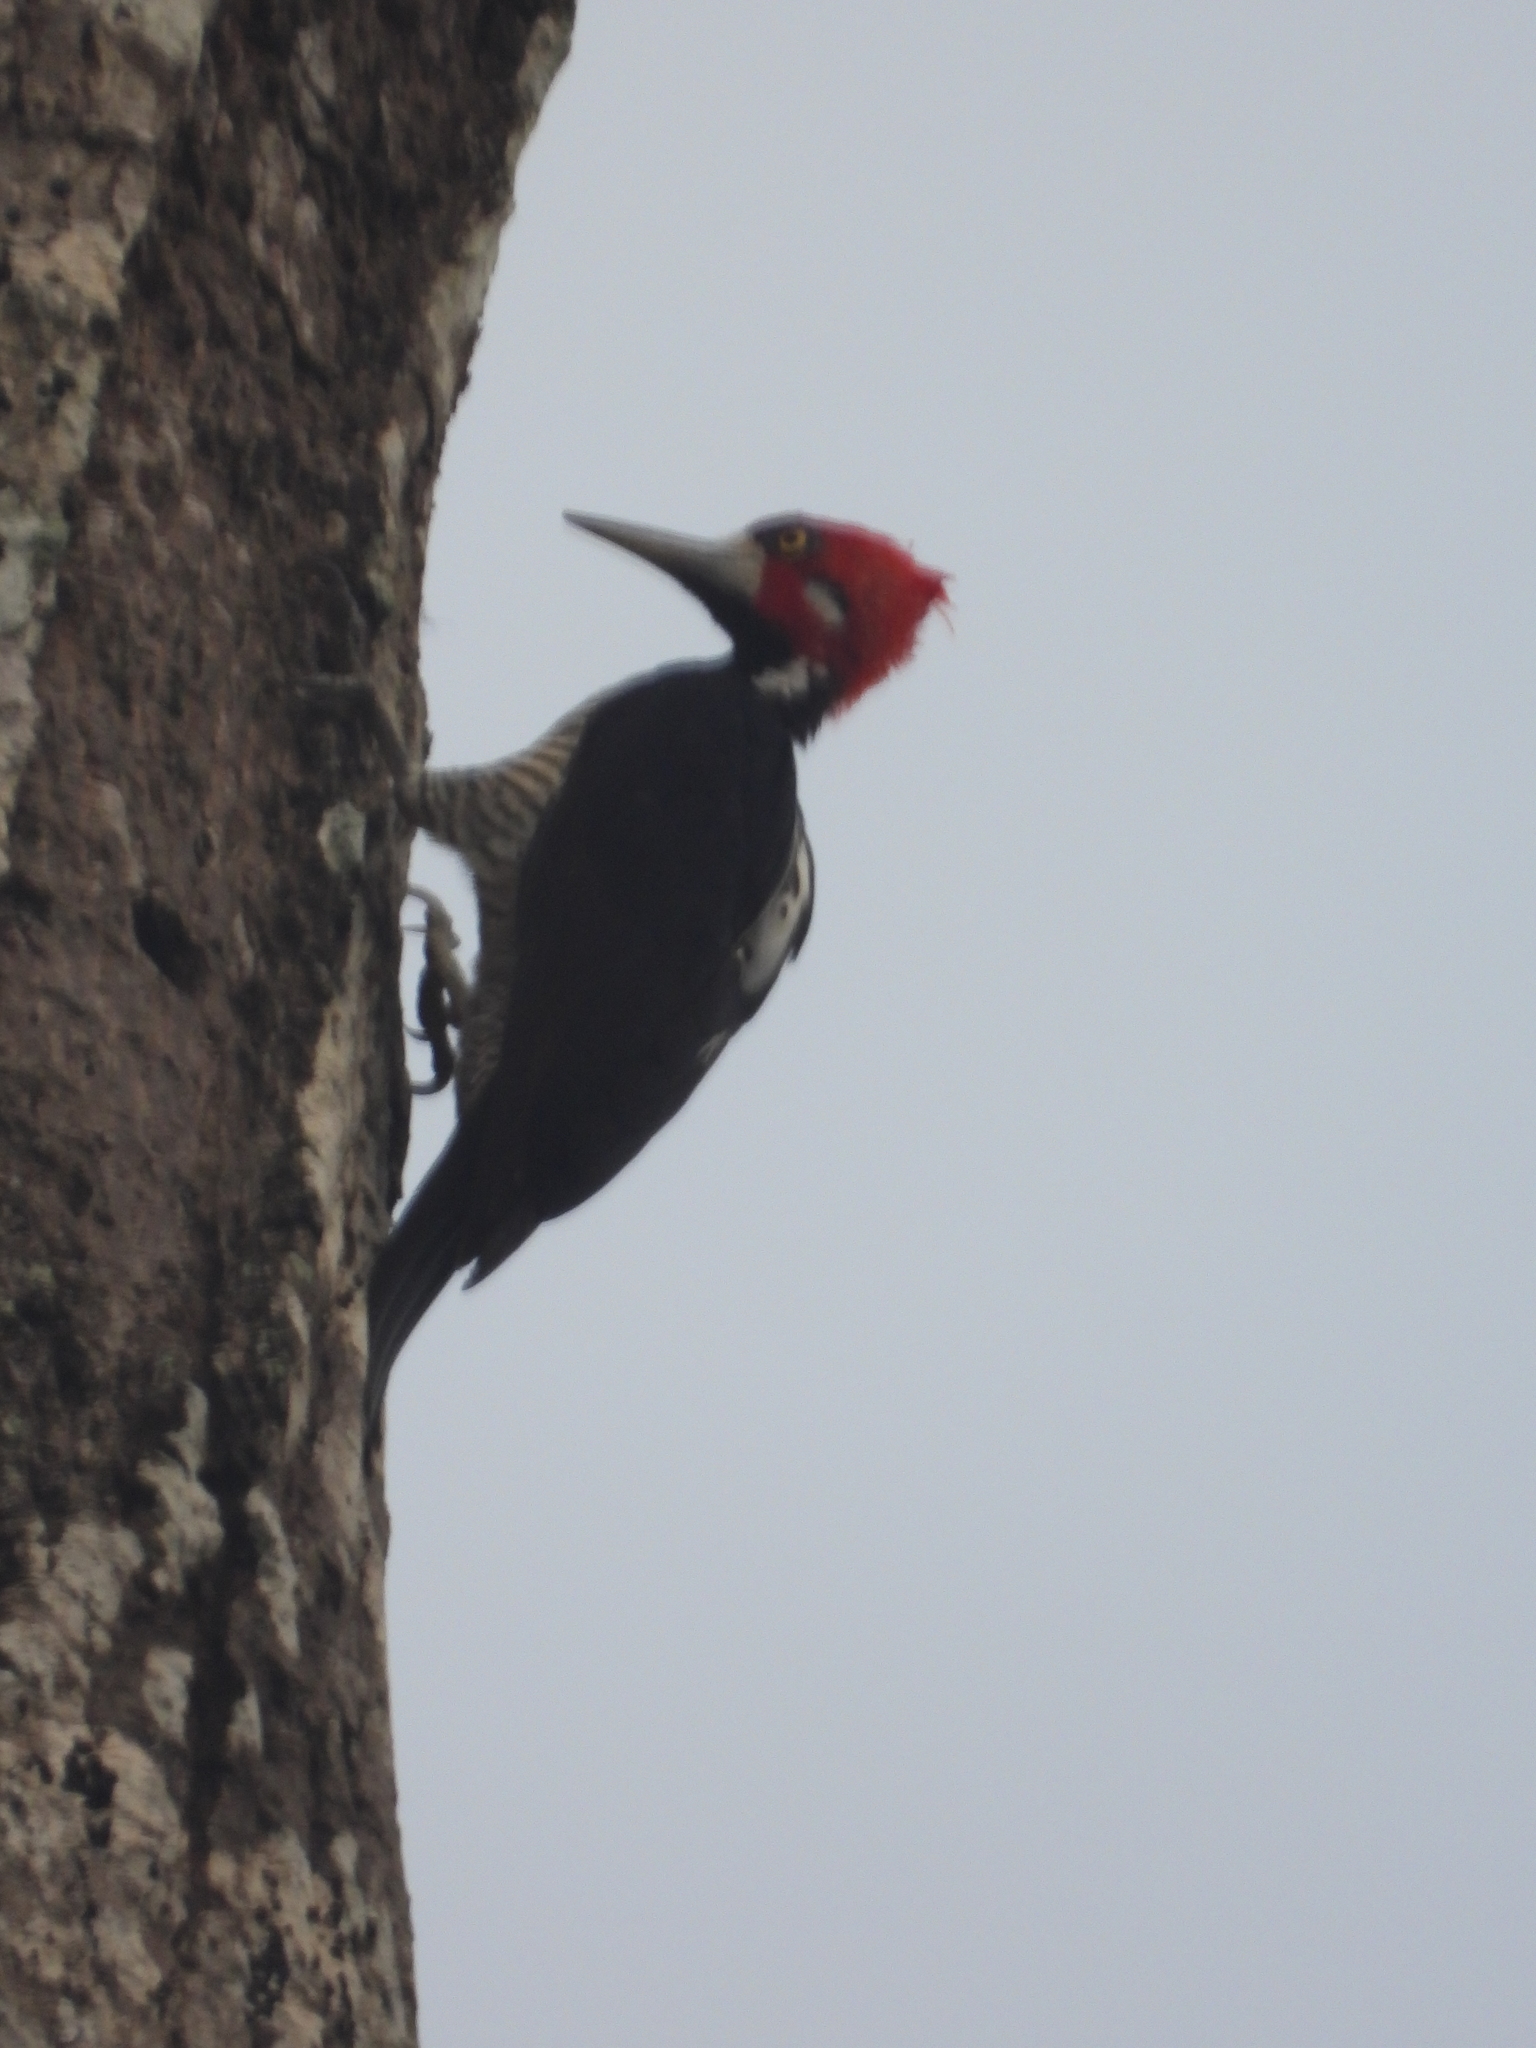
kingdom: Animalia
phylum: Chordata
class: Aves
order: Piciformes
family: Picidae
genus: Campephilus
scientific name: Campephilus melanoleucos
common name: Crimson-crested woodpecker
